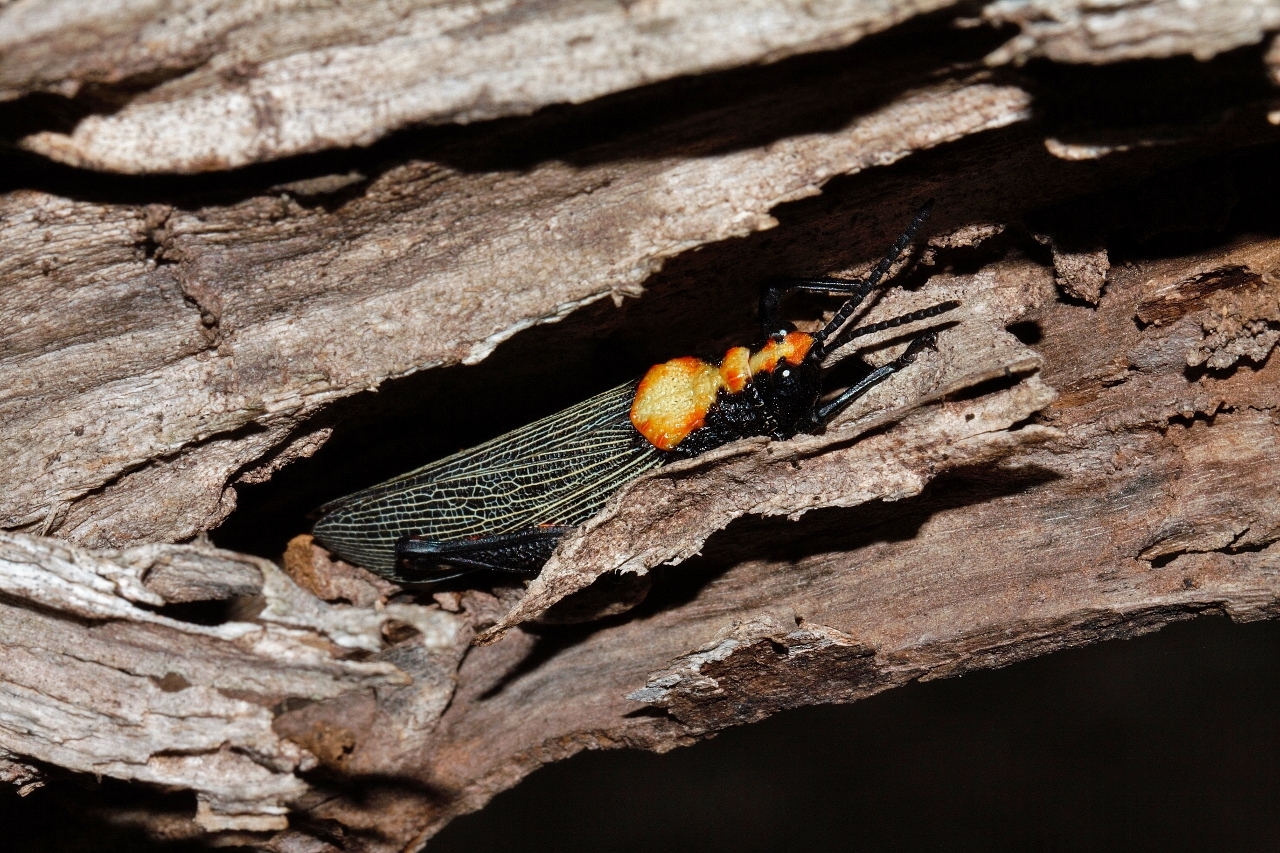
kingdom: Animalia
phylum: Arthropoda
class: Insecta
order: Orthoptera
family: Pyrgomorphidae
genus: Maura
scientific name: Maura marshalli
